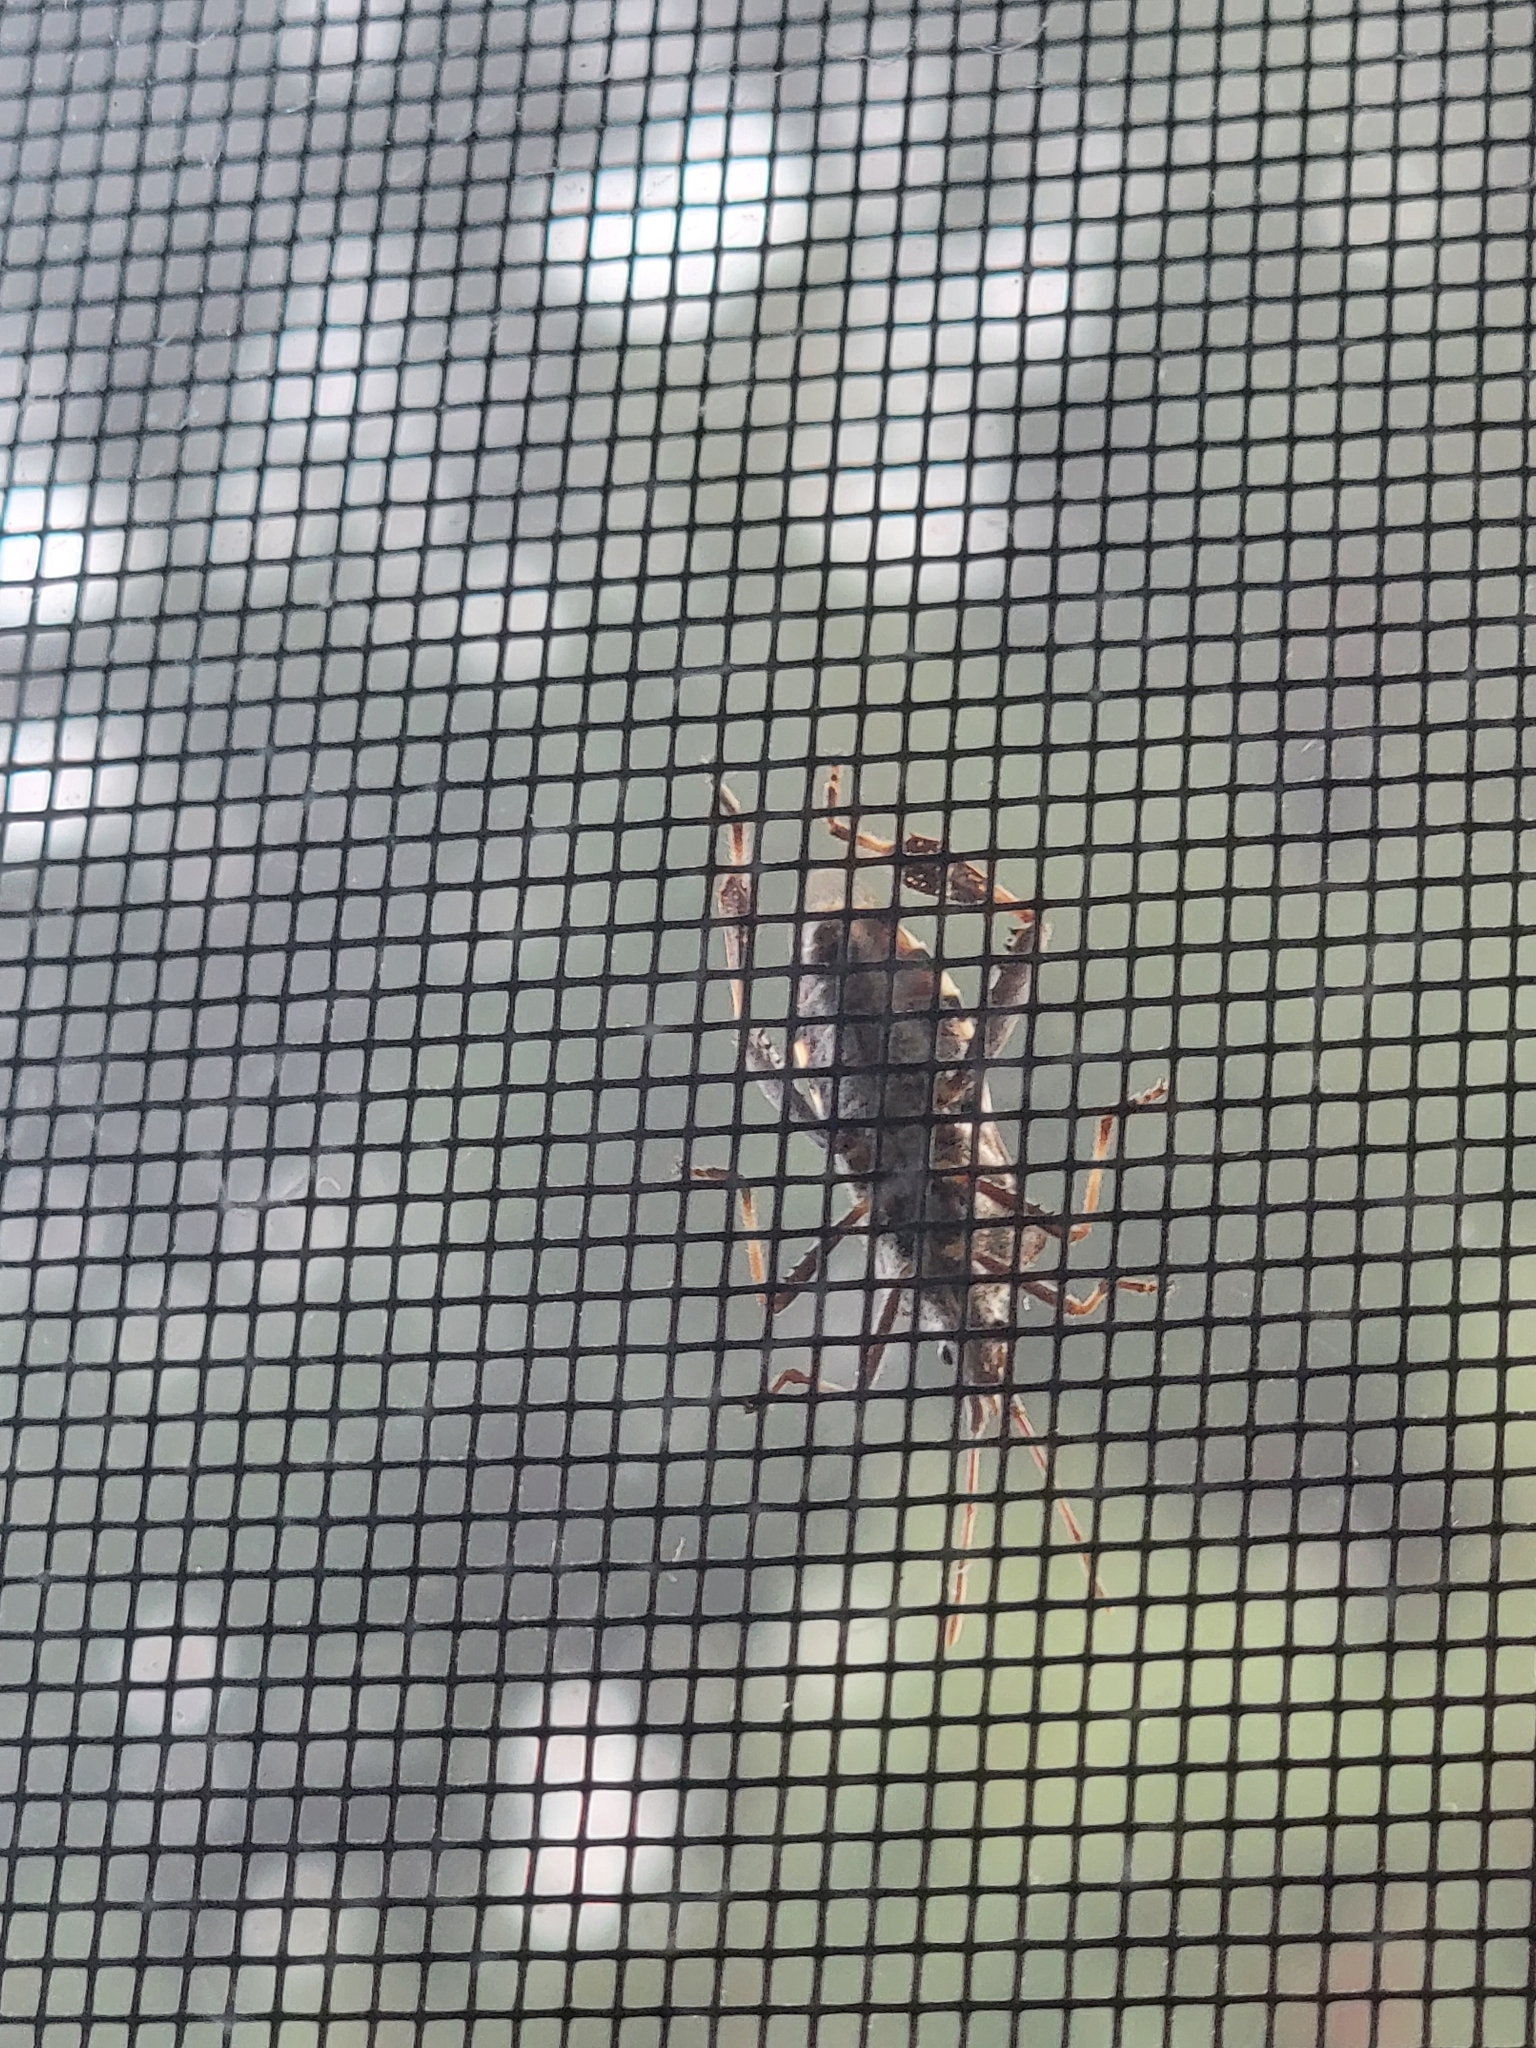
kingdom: Animalia
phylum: Arthropoda
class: Insecta
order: Hemiptera
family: Coreidae
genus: Leptoglossus
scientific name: Leptoglossus clypealis
